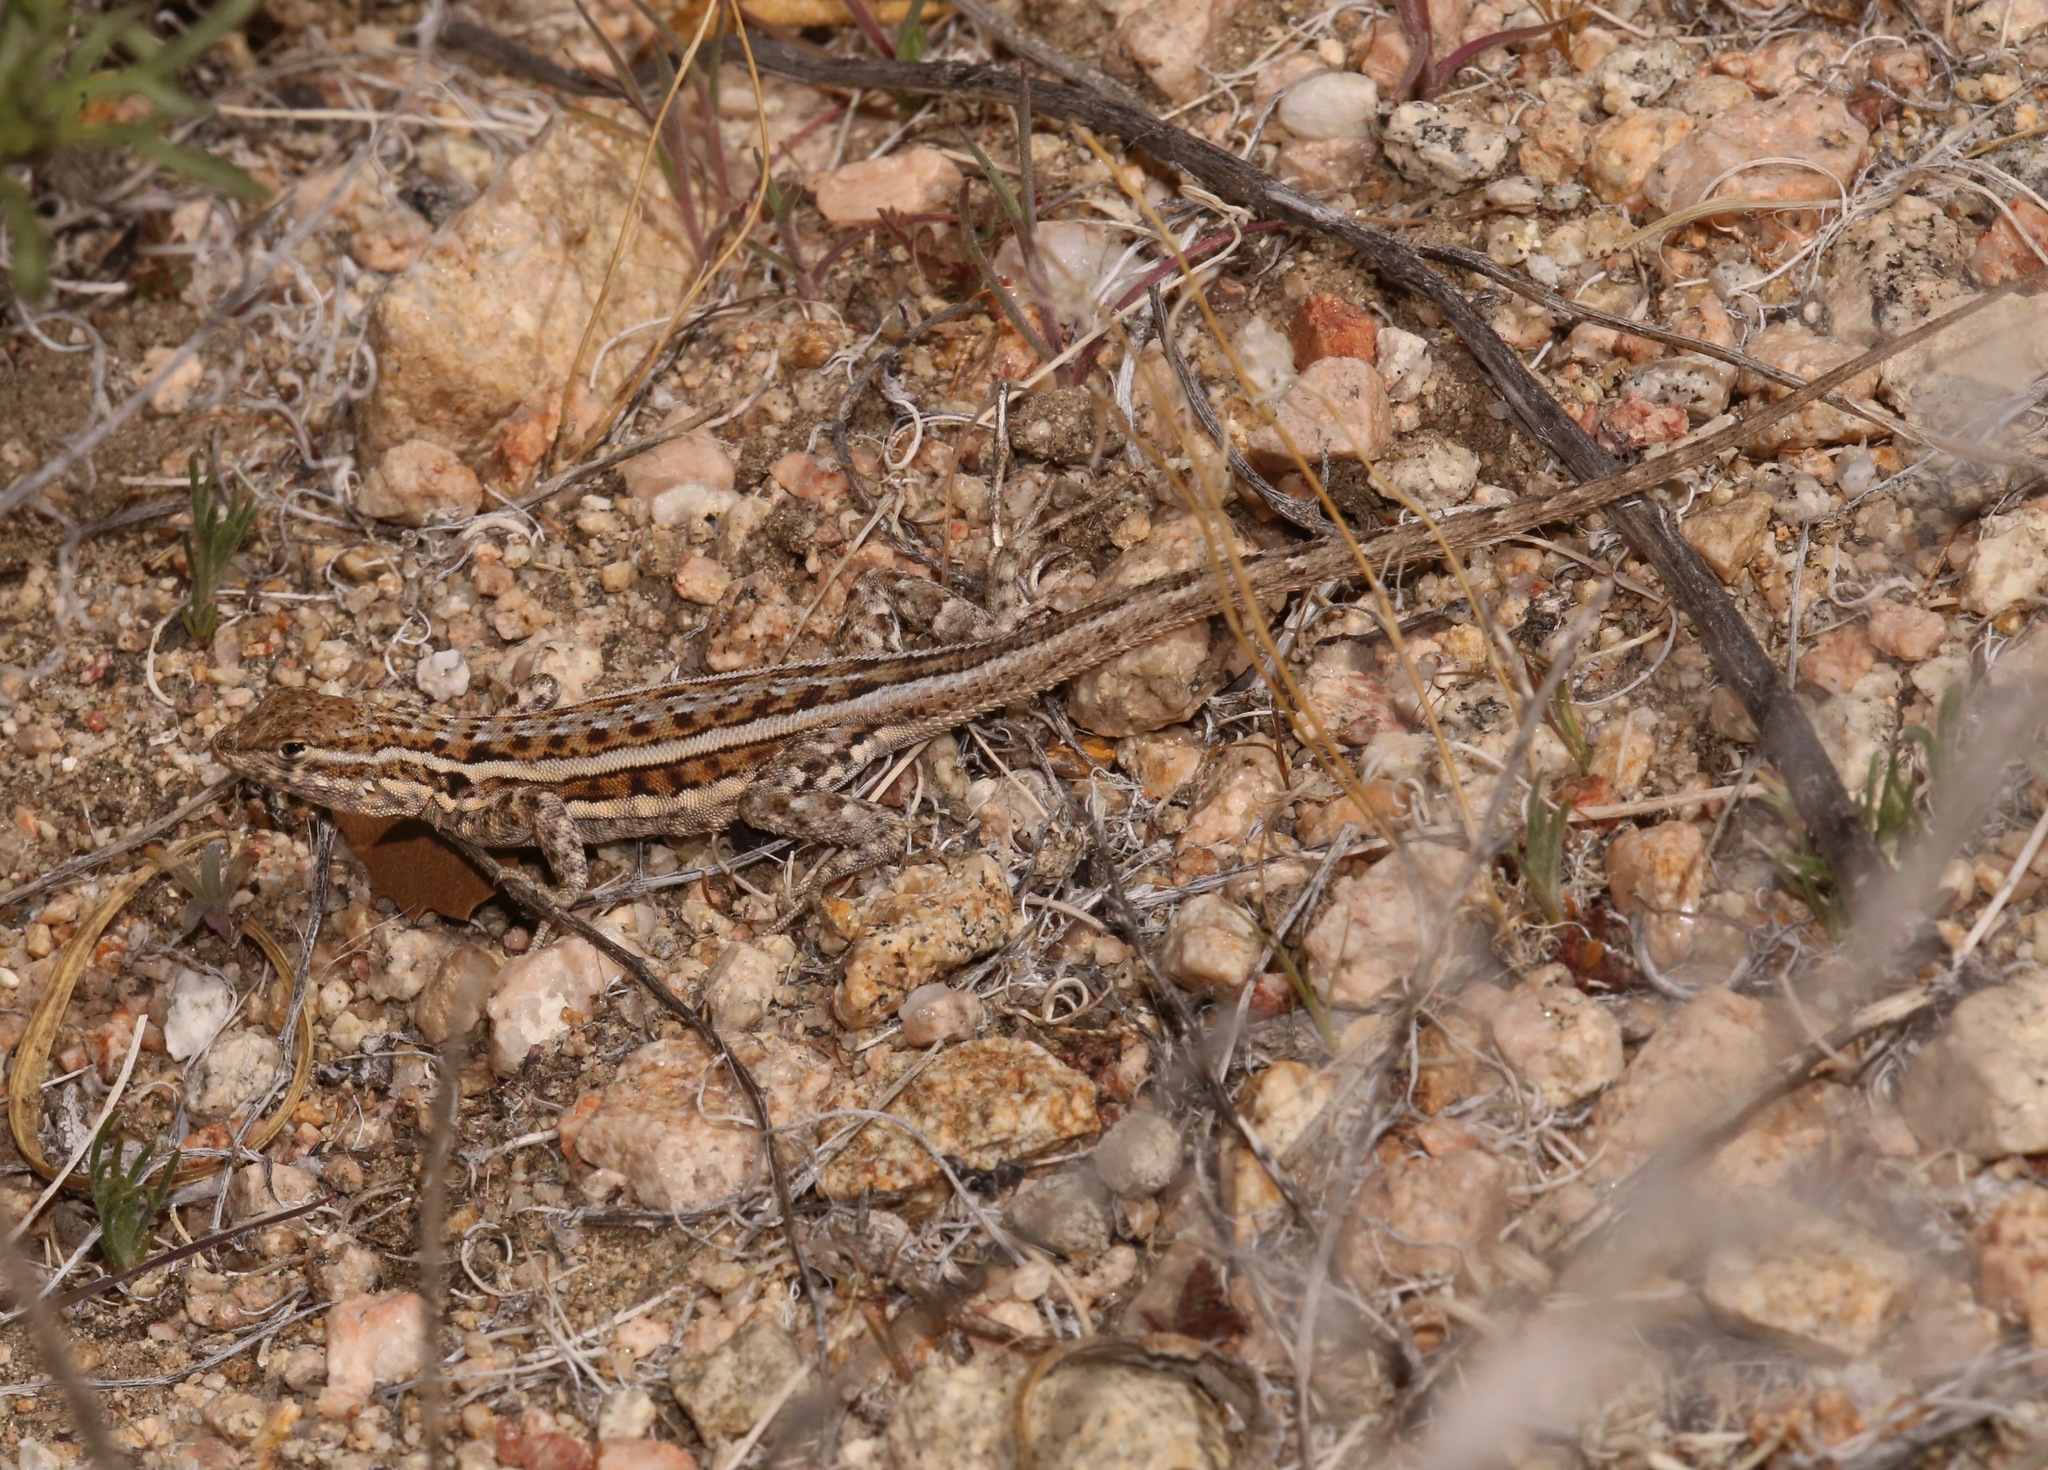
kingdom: Animalia
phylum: Chordata
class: Squamata
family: Phrynosomatidae
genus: Uta
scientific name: Uta stansburiana
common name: Side-blotched lizard
